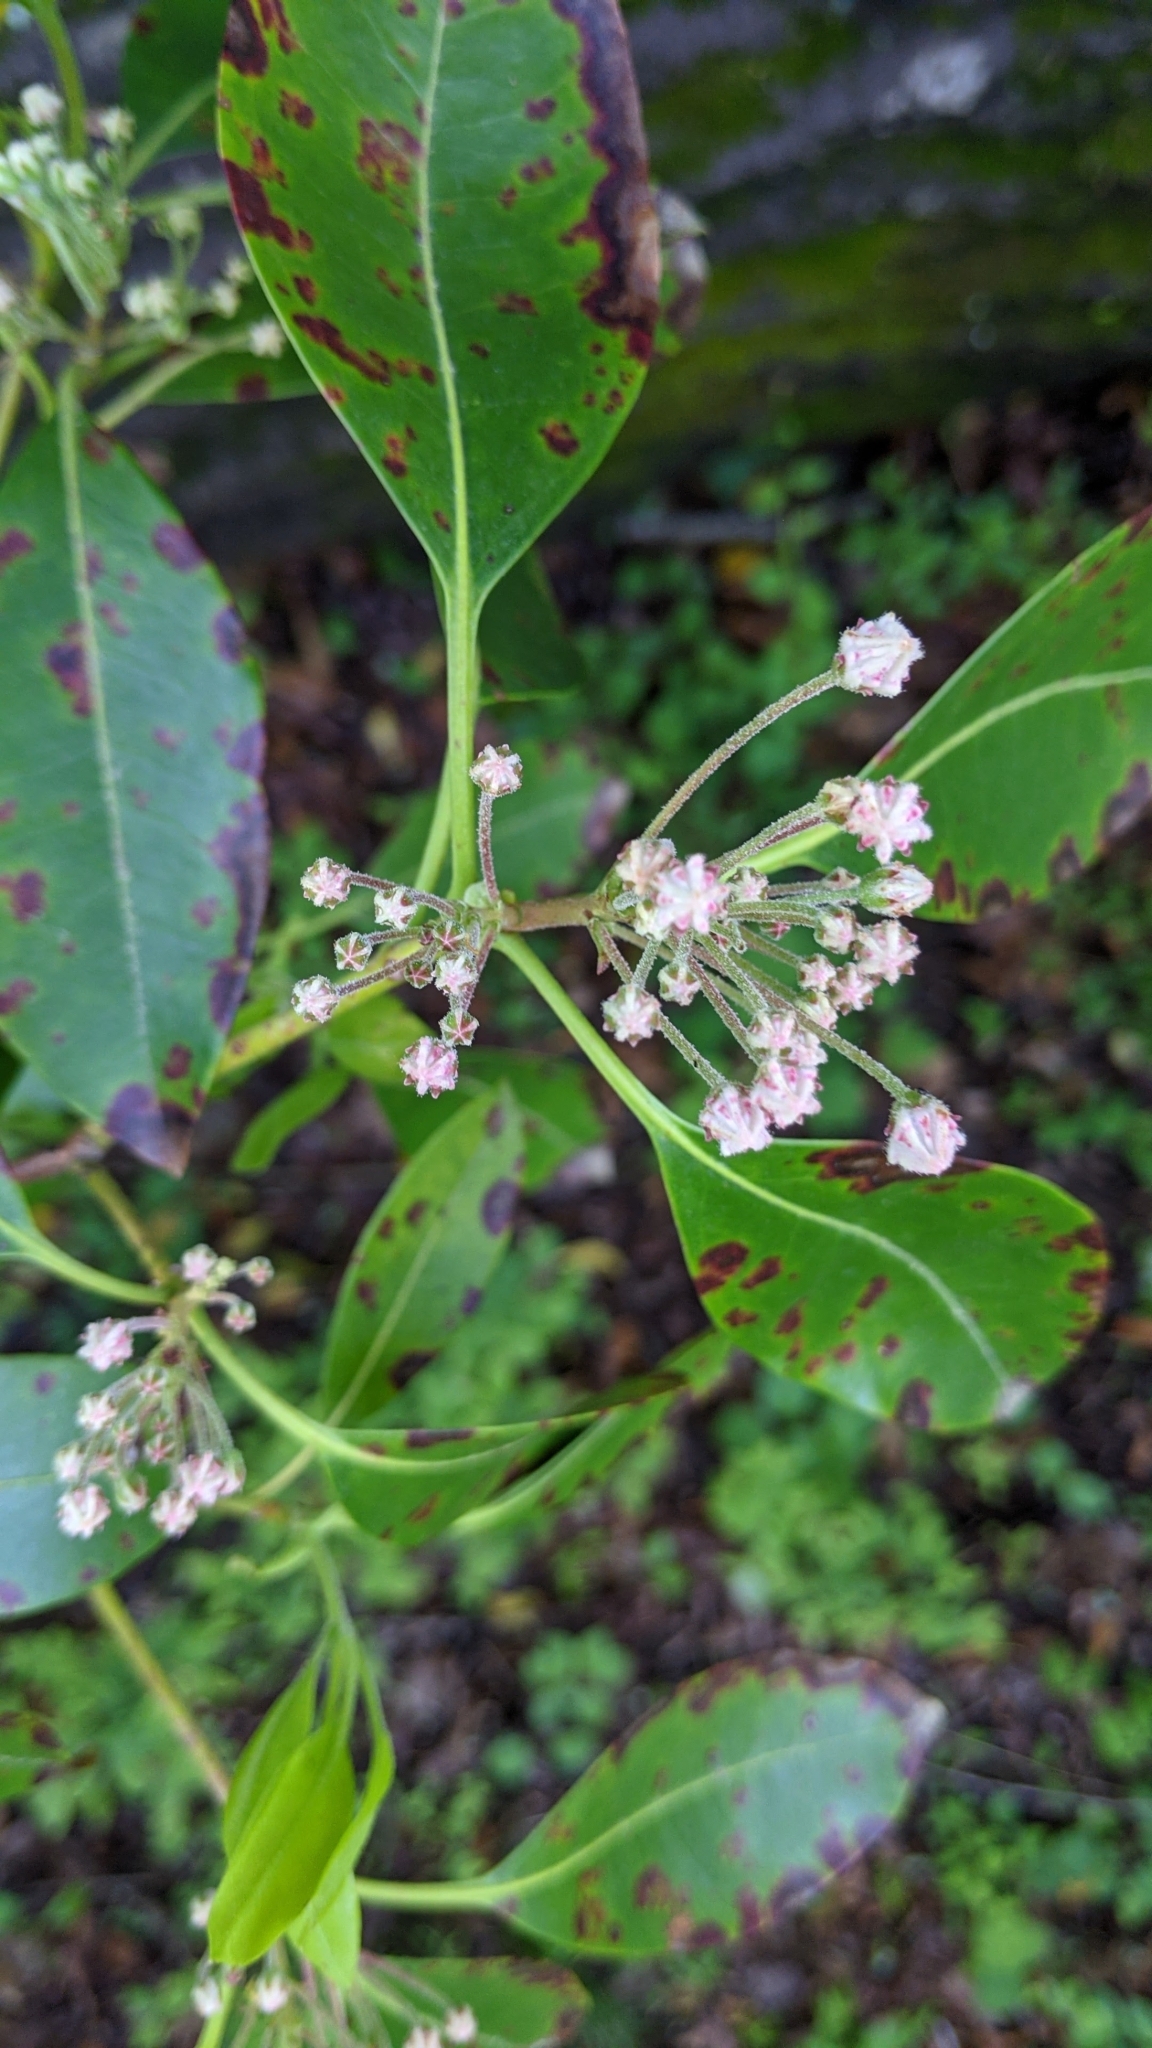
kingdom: Plantae
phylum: Tracheophyta
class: Magnoliopsida
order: Ericales
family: Ericaceae
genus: Kalmia
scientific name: Kalmia latifolia
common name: Mountain-laurel
